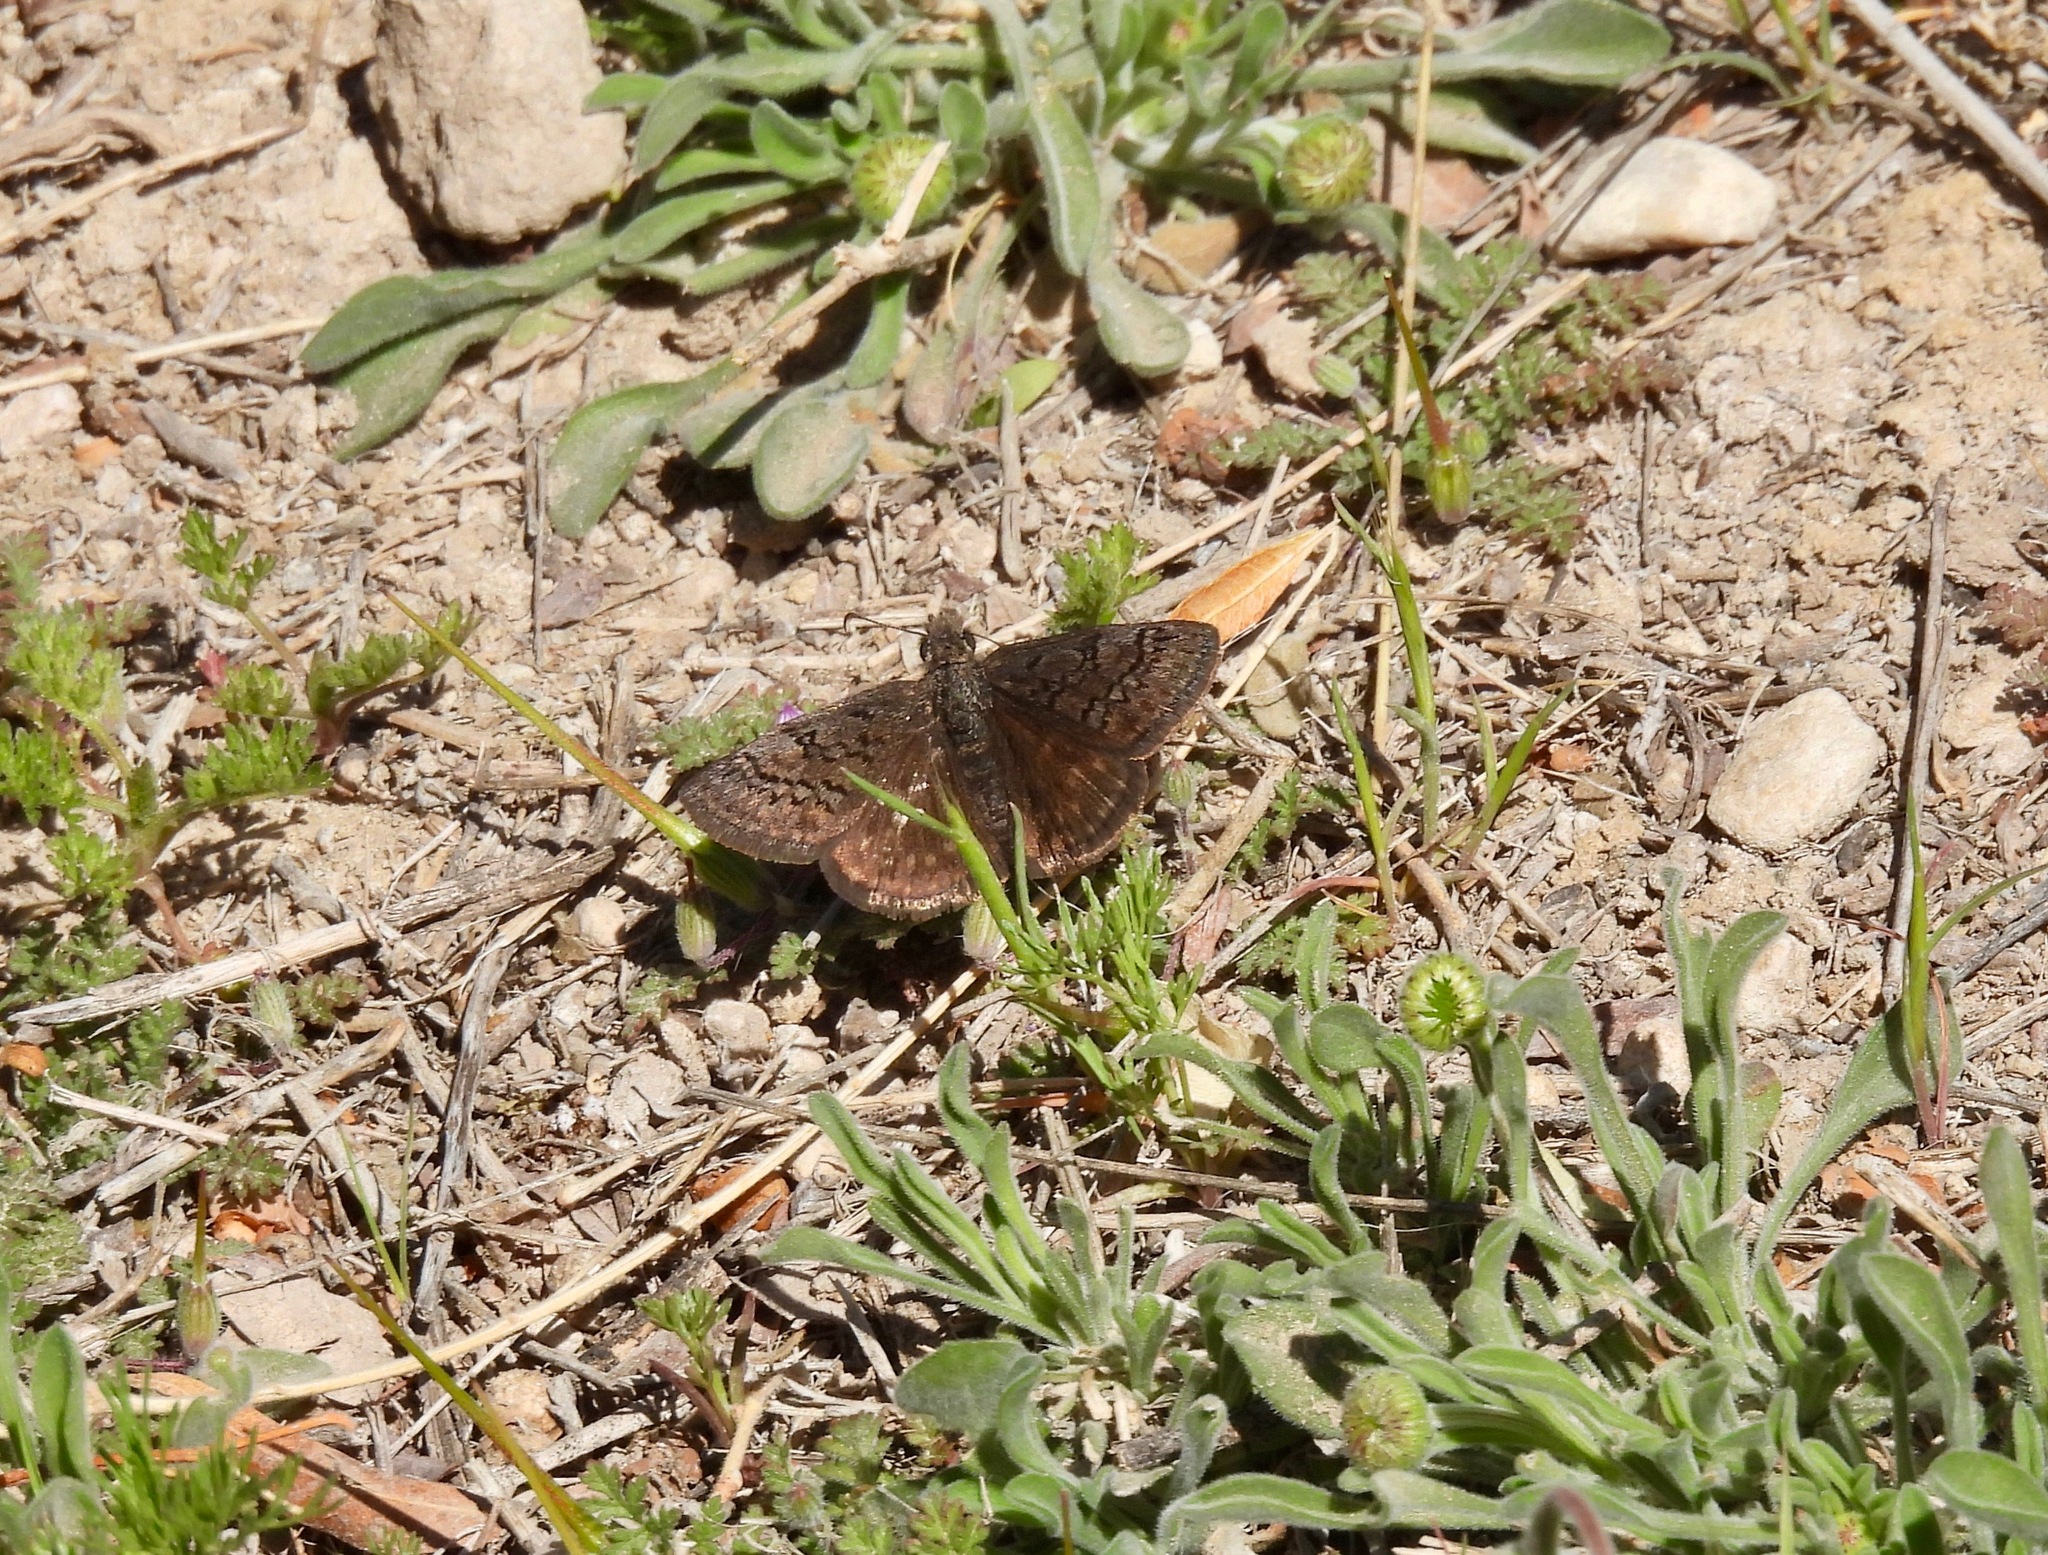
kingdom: Animalia
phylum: Arthropoda
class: Insecta
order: Lepidoptera
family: Hesperiidae
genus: Erynnis
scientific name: Erynnis brizo
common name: Sleepy duskywing
